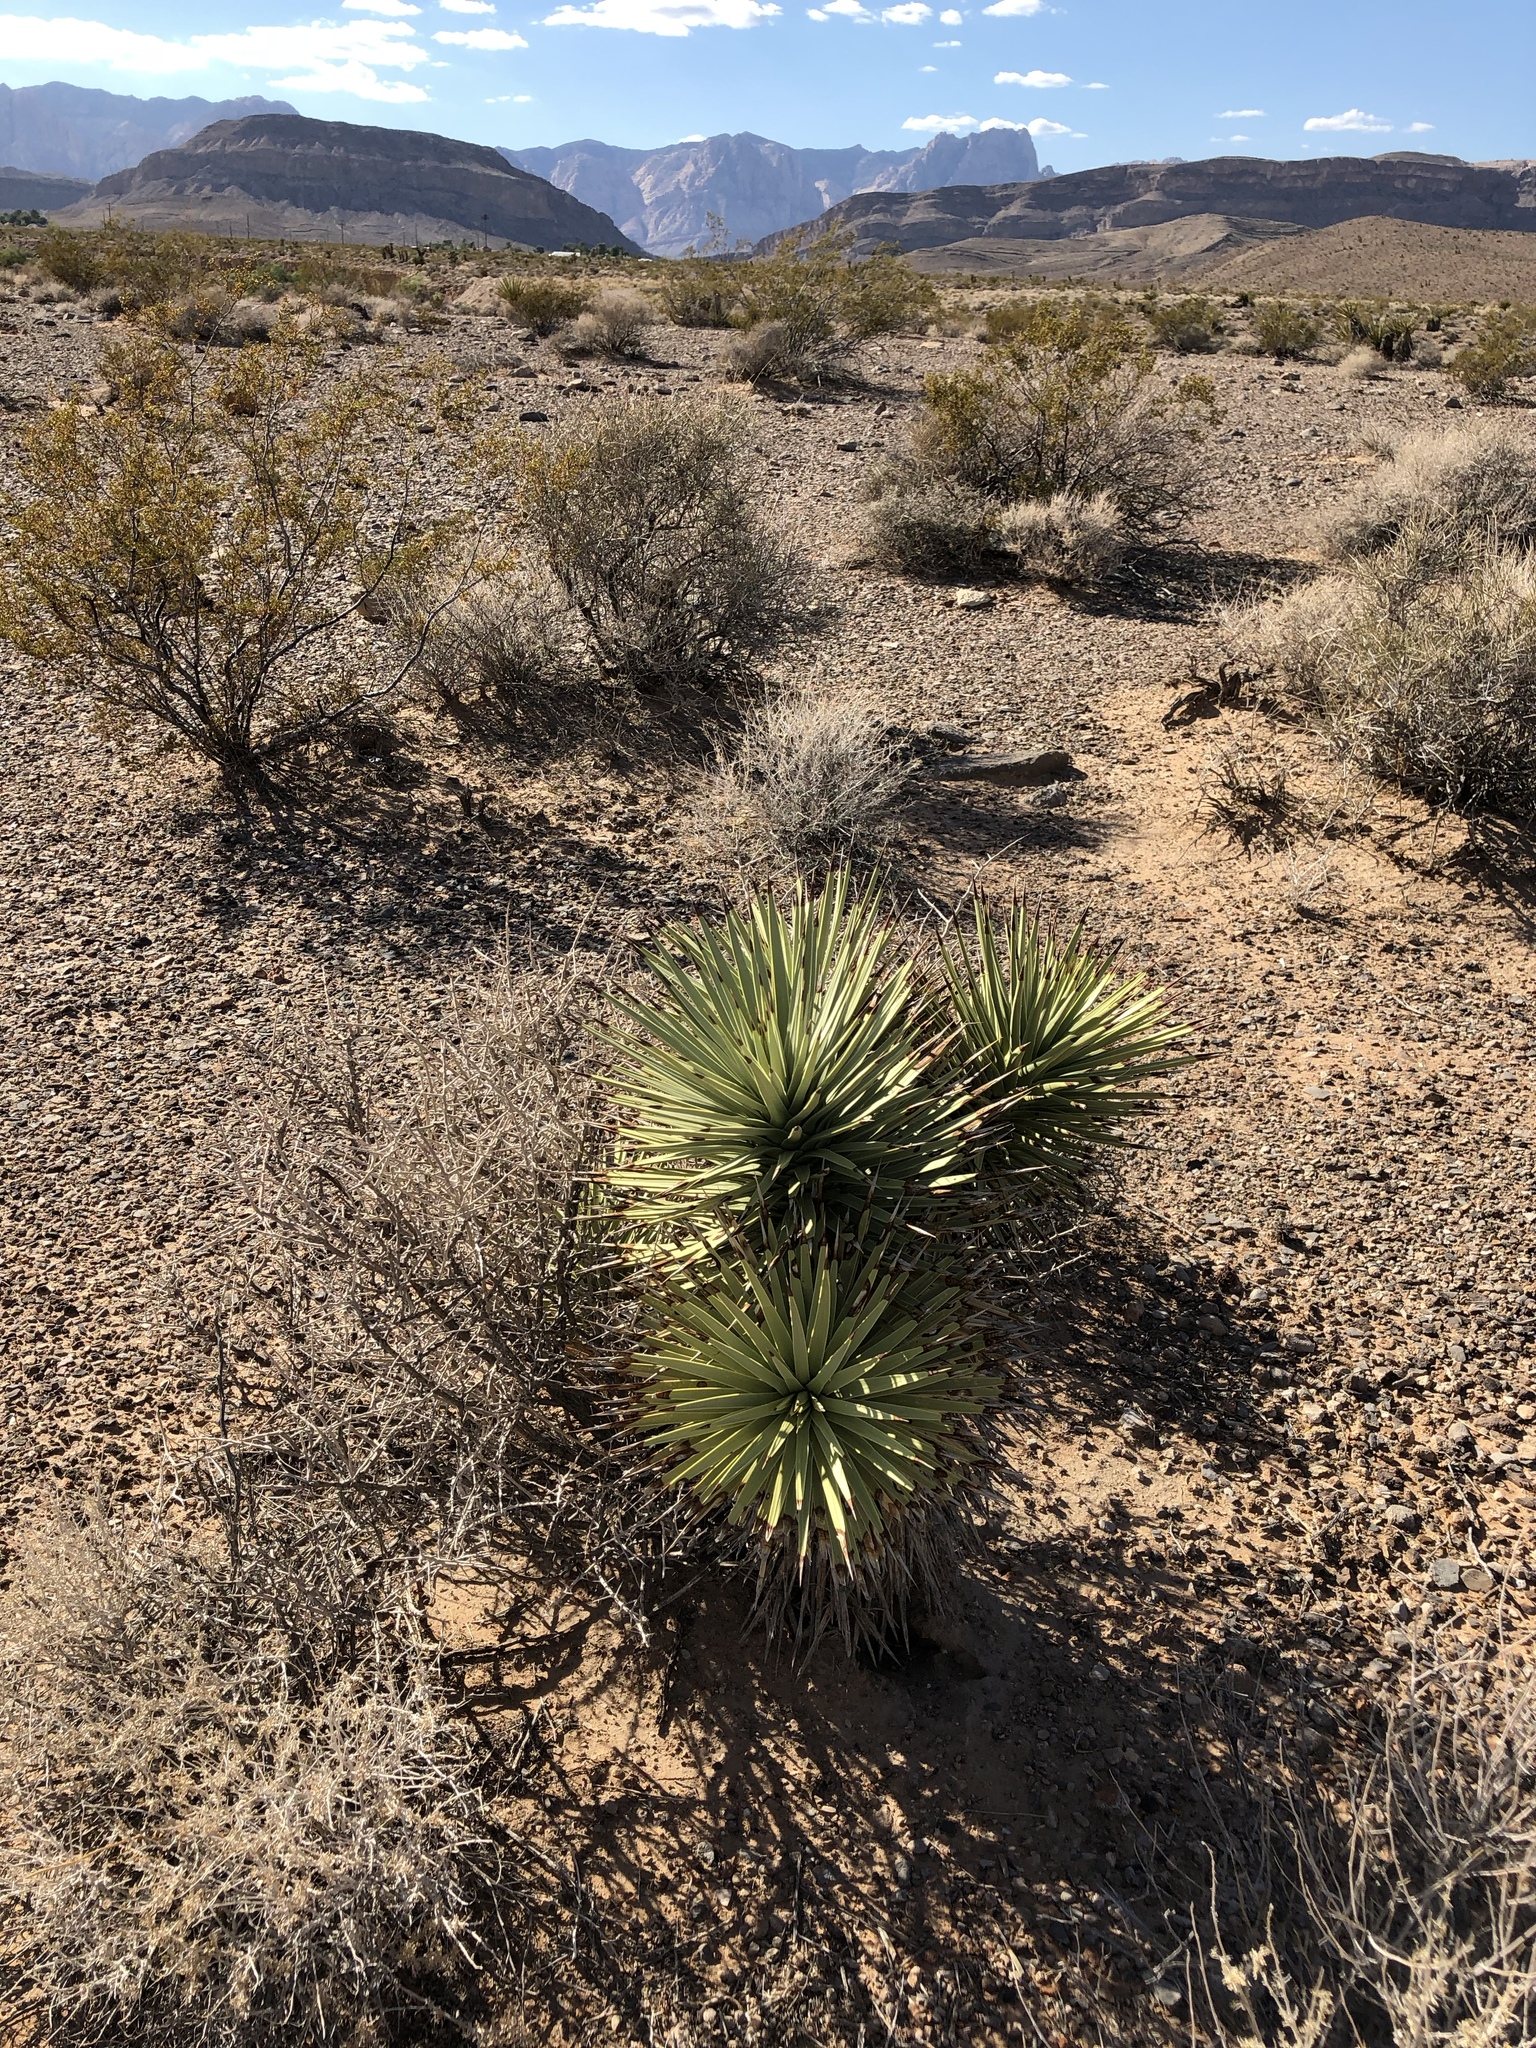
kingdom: Plantae
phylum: Tracheophyta
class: Liliopsida
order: Asparagales
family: Asparagaceae
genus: Yucca
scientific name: Yucca brevifolia
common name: Joshua tree
